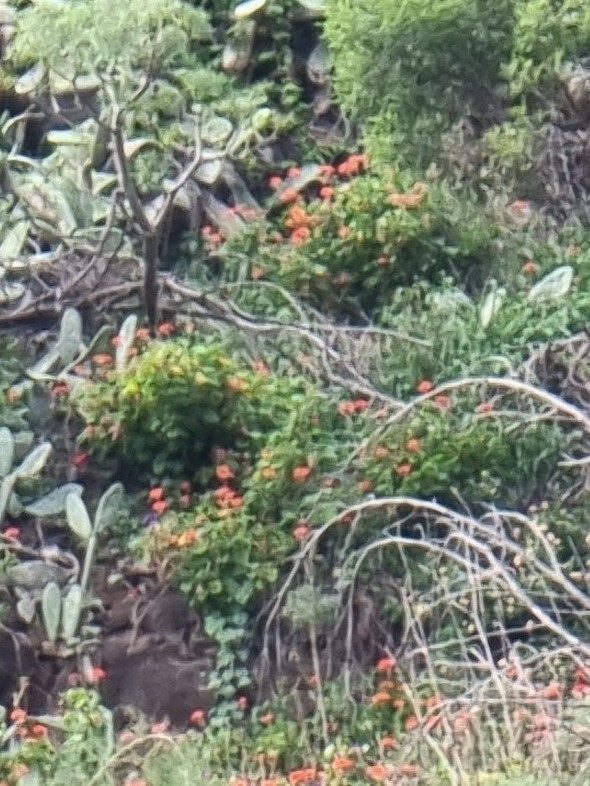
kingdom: Plantae
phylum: Tracheophyta
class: Magnoliopsida
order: Geraniales
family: Geraniaceae
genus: Pelargonium
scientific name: Pelargonium hybridum
